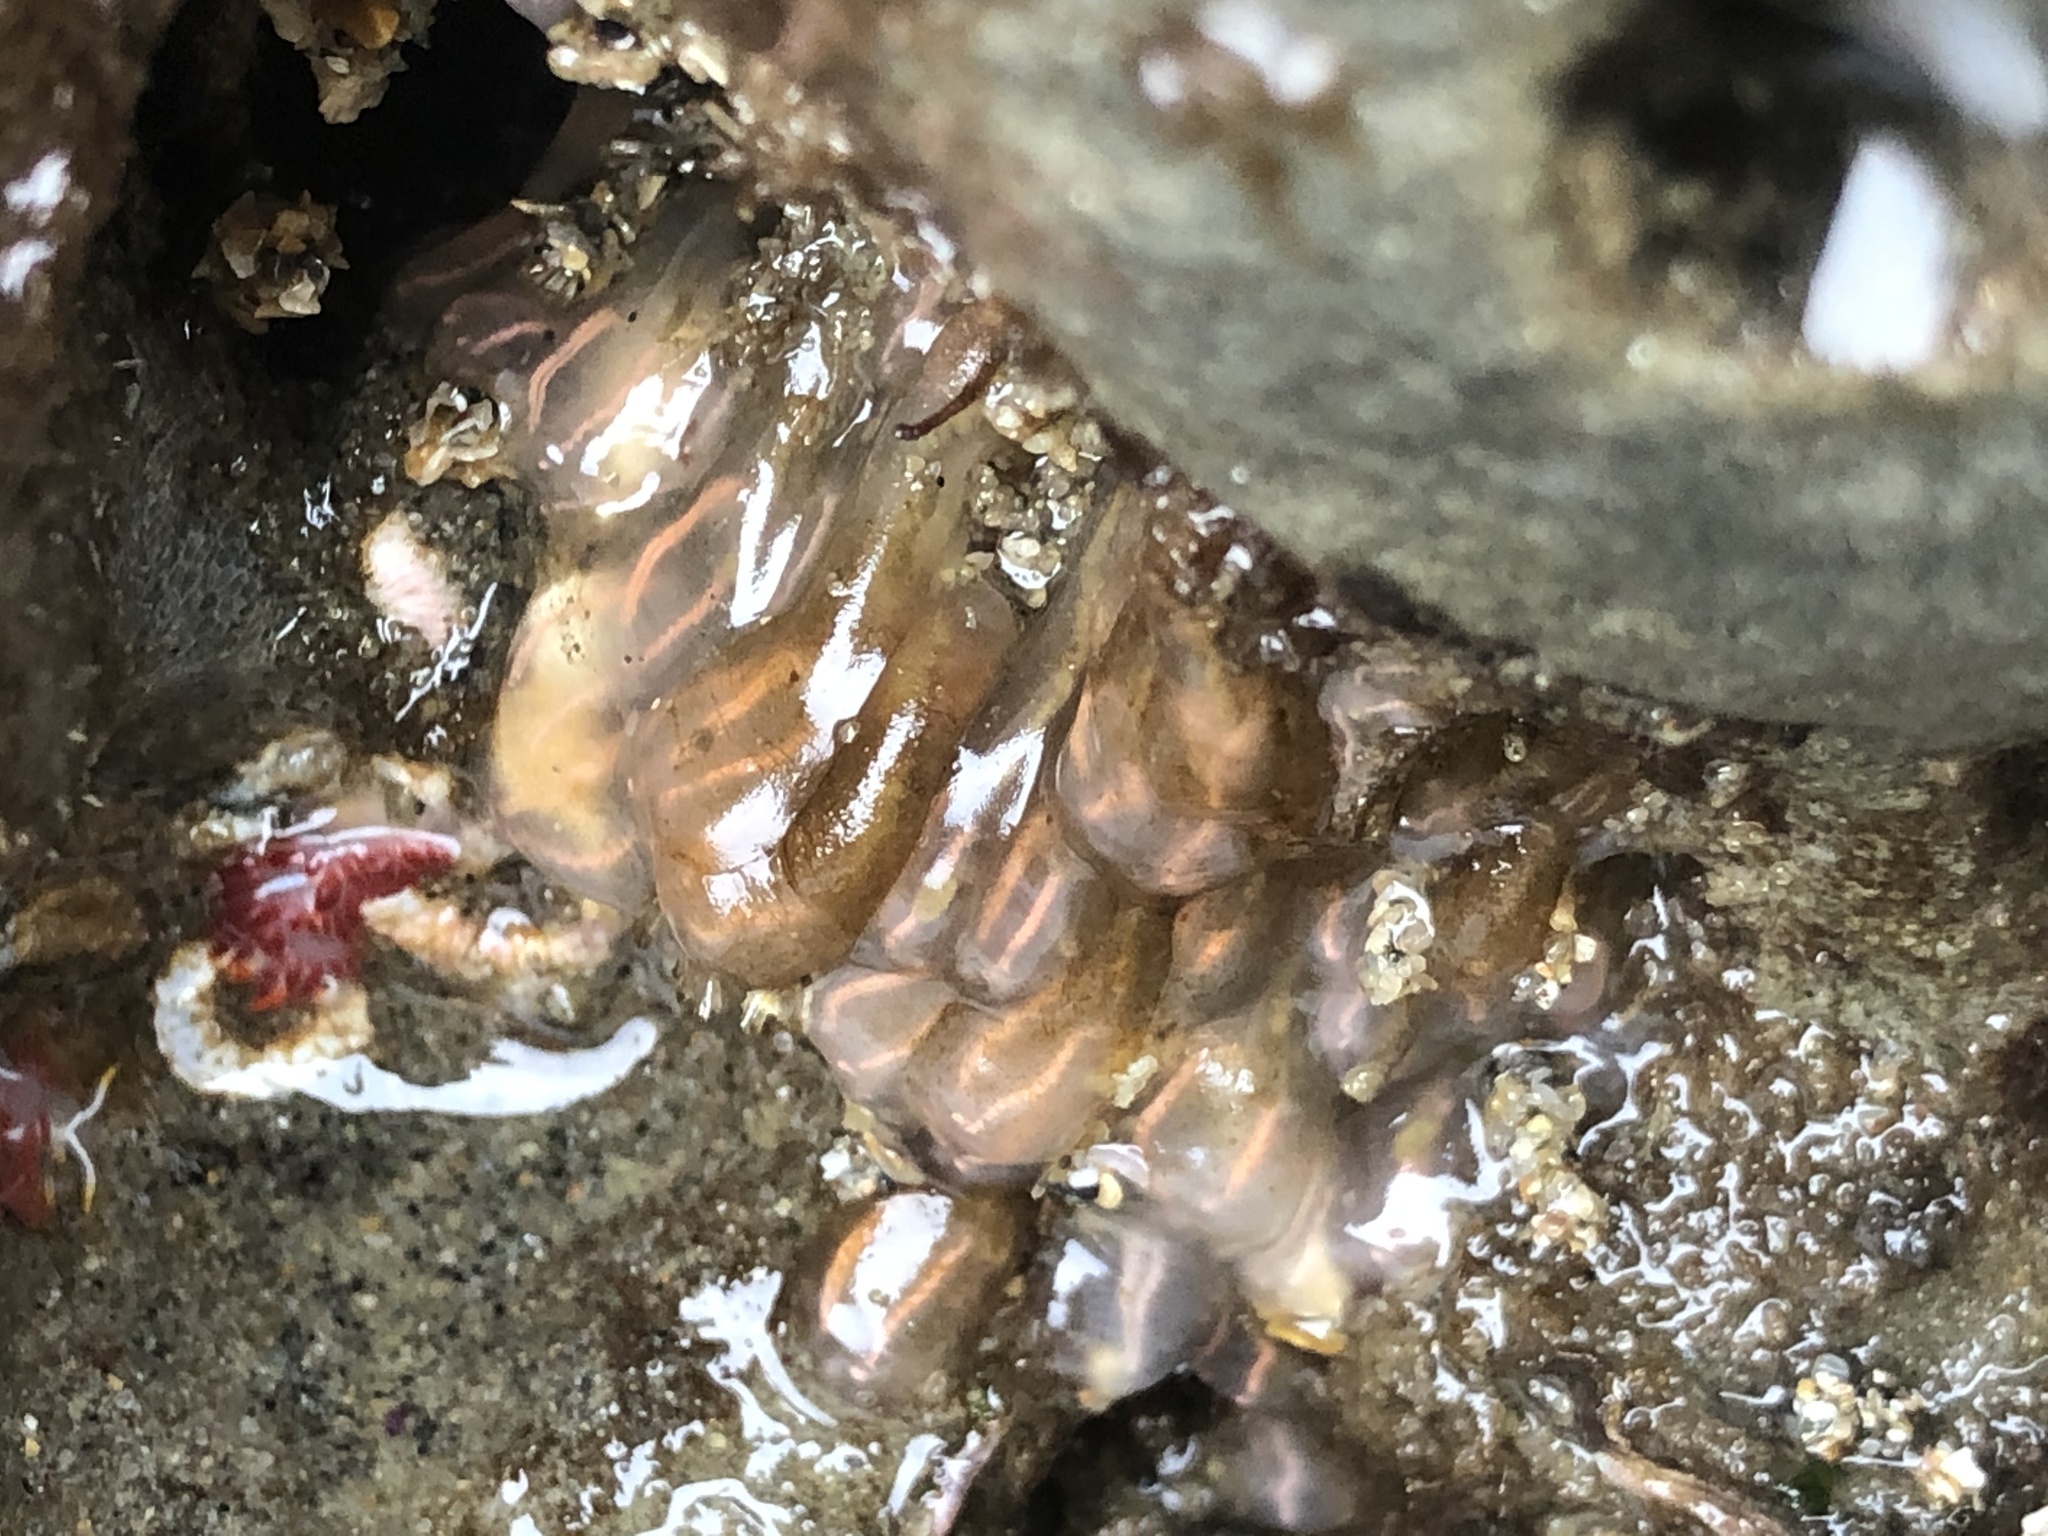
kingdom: Animalia
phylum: Chordata
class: Ascidiacea
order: Aplousobranchia
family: Clavelinidae
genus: Clavelina
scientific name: Clavelina huntsmani
